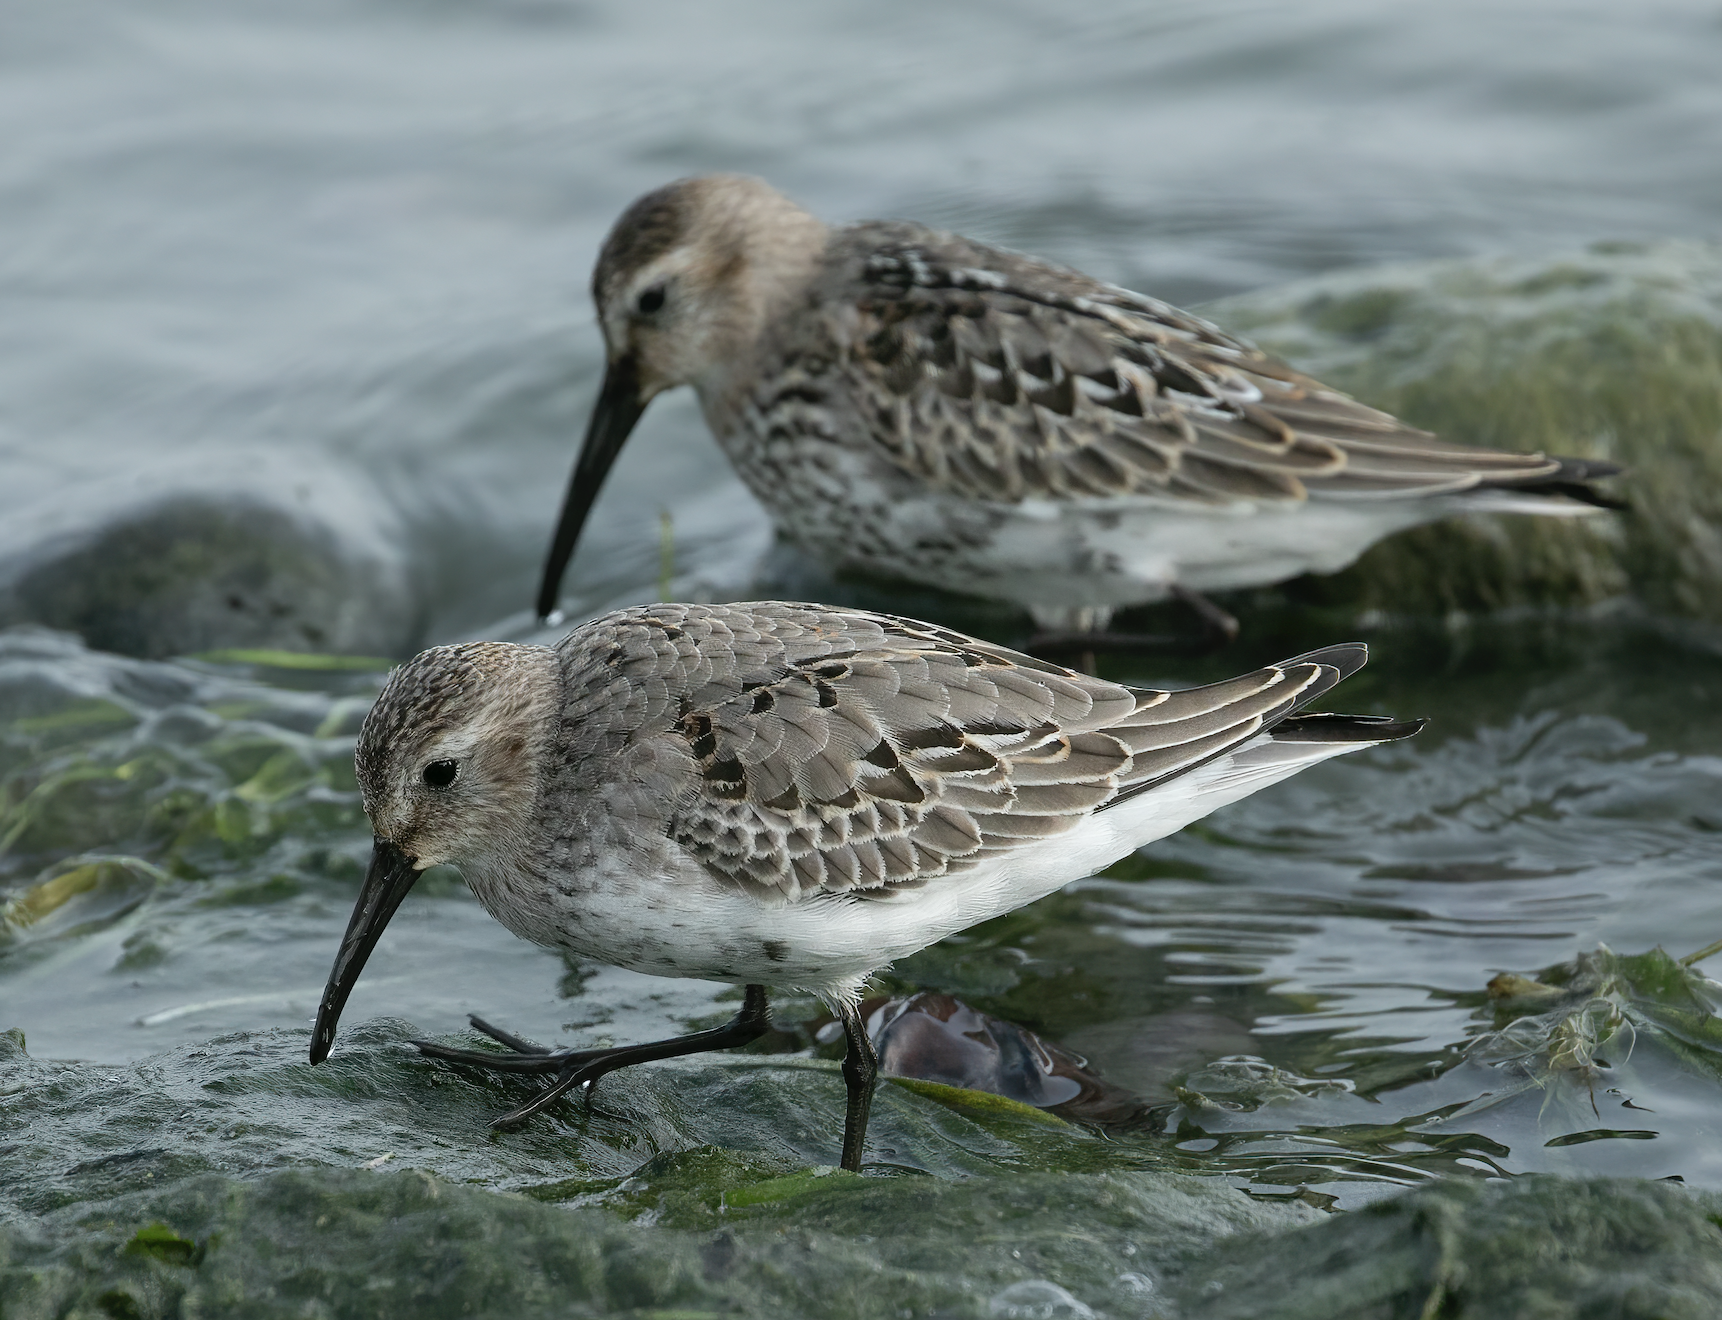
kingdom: Animalia
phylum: Chordata
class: Aves
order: Charadriiformes
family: Scolopacidae
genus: Calidris
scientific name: Calidris alpina
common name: Dunlin
